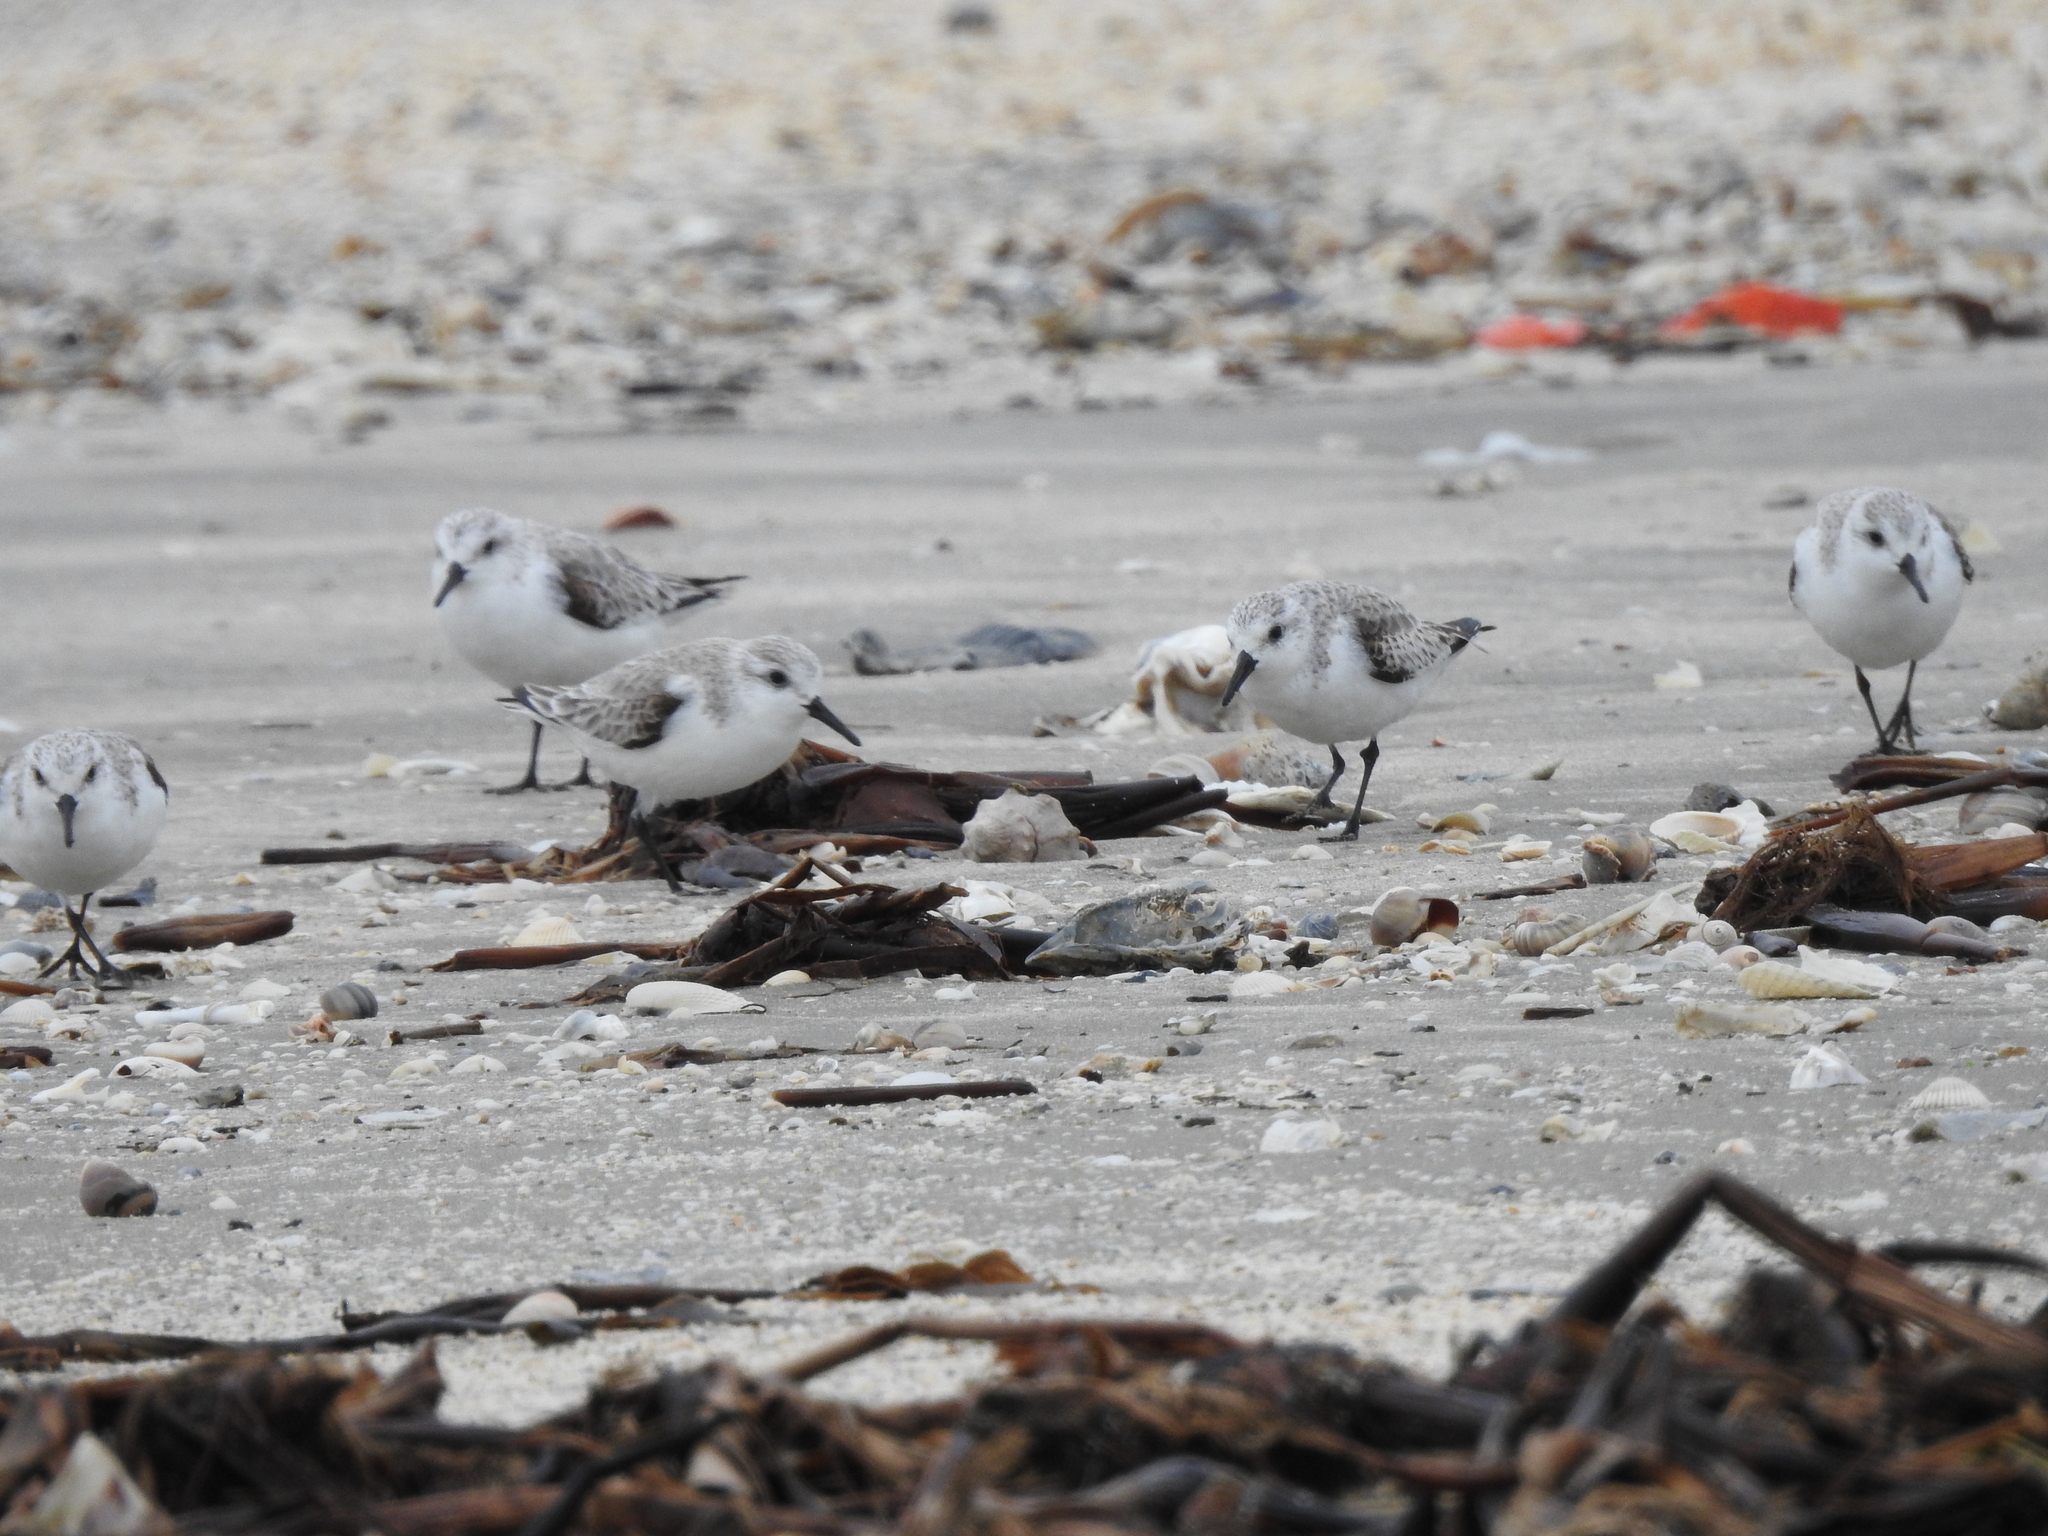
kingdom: Animalia
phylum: Chordata
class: Aves
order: Charadriiformes
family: Scolopacidae
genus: Calidris
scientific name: Calidris alba
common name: Sanderling
